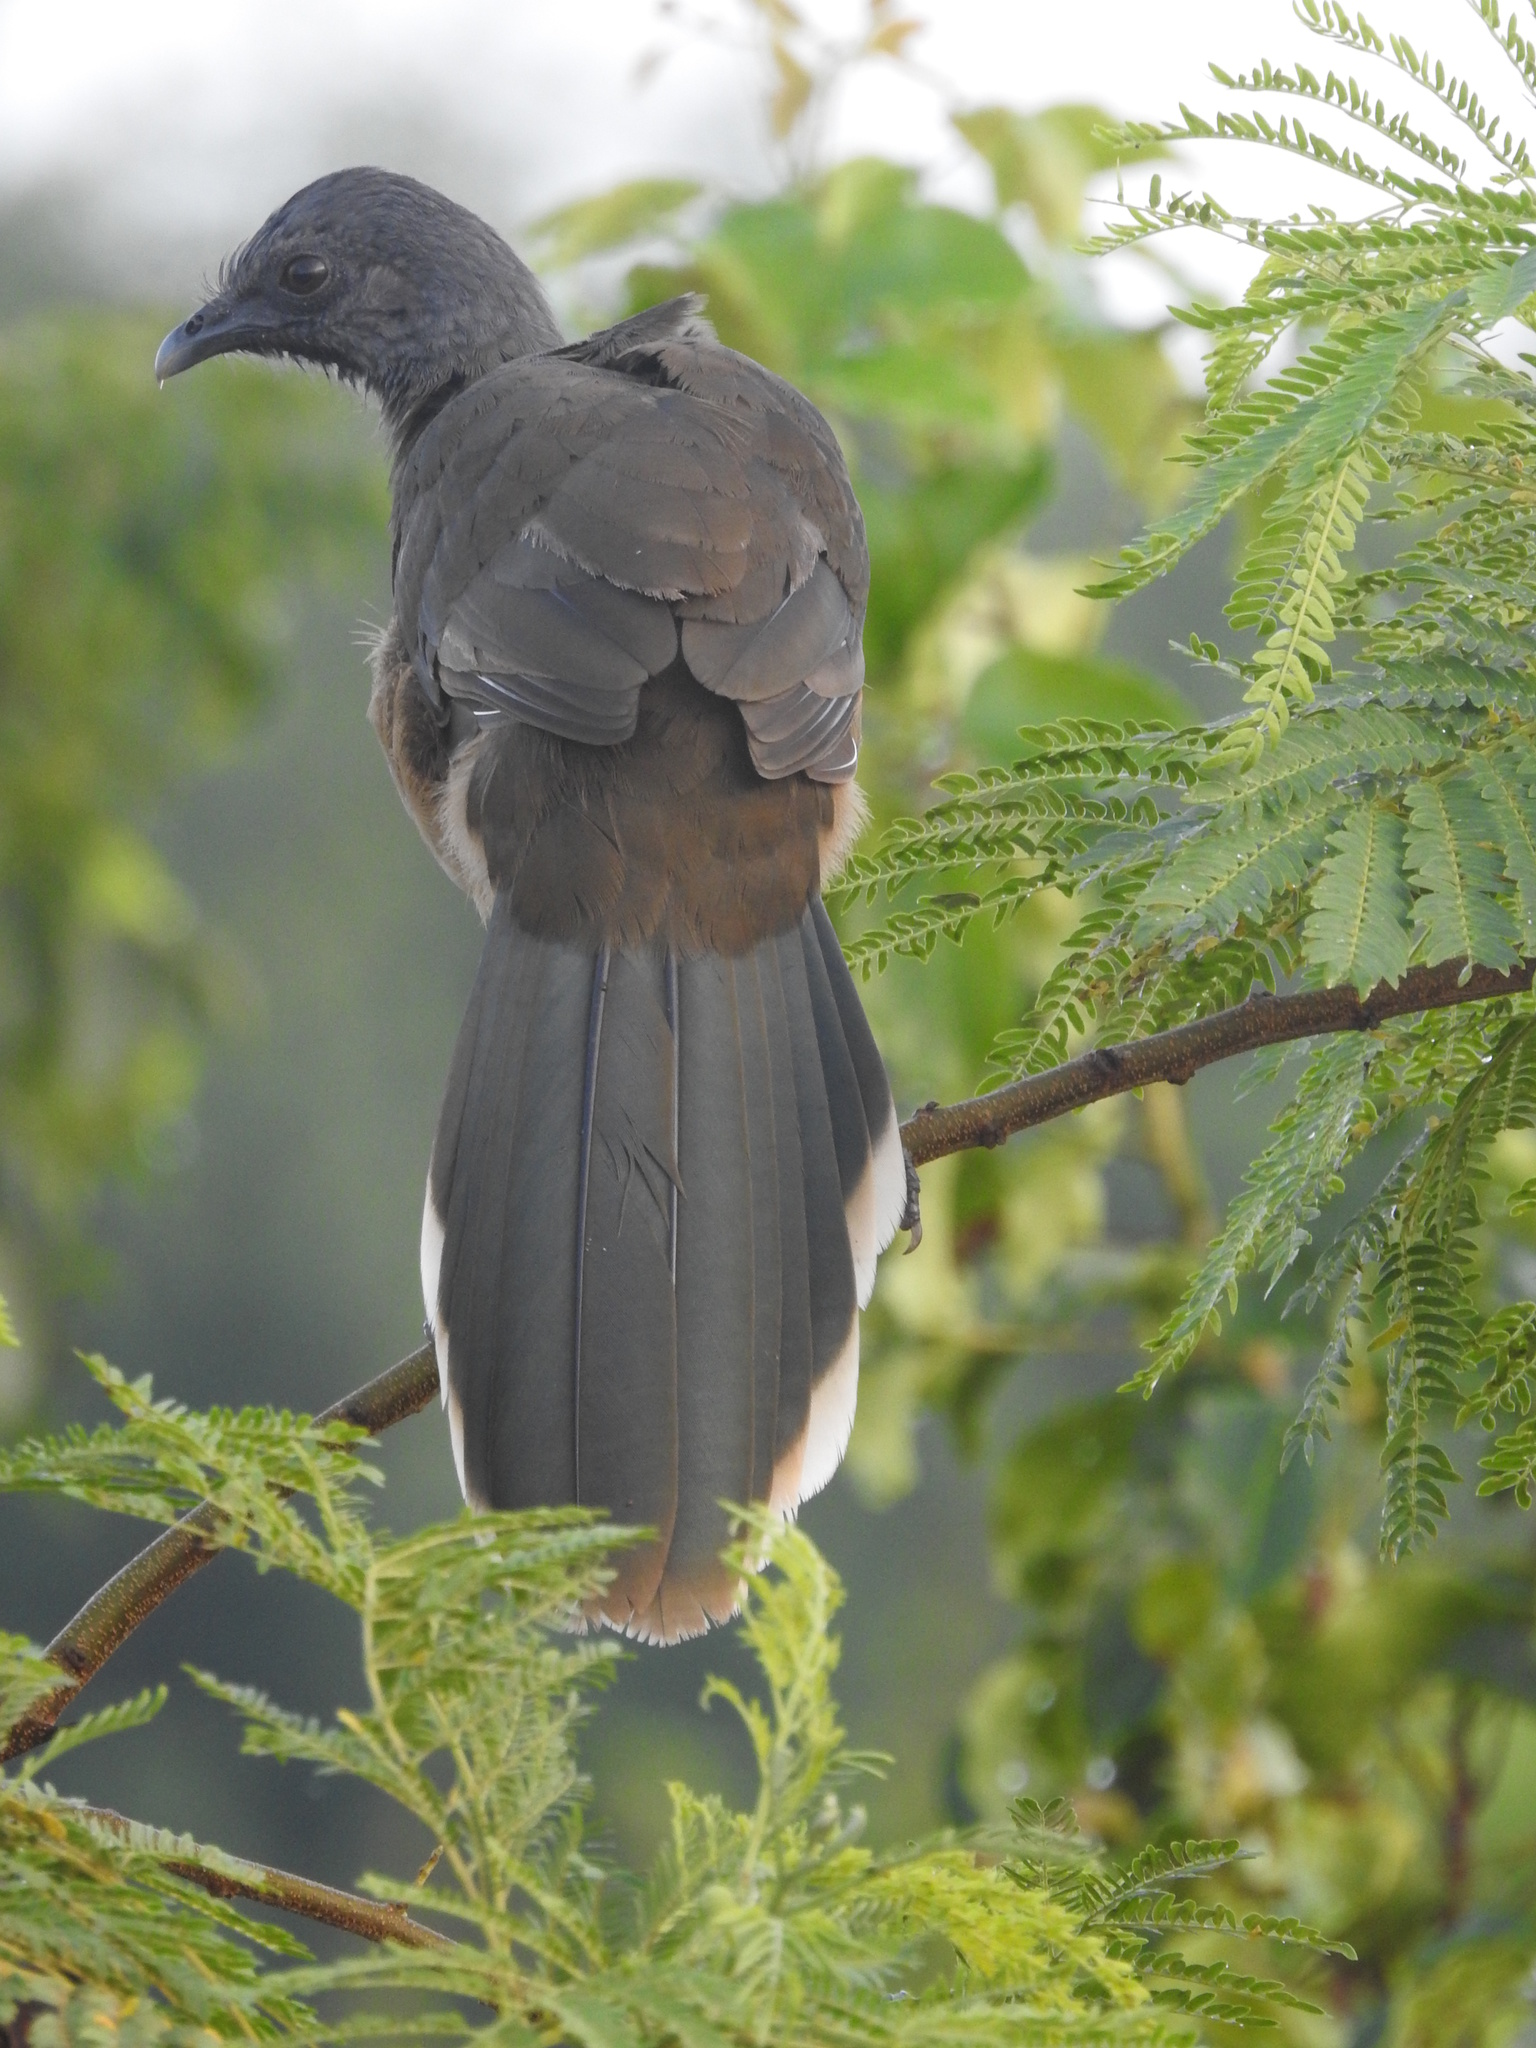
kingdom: Animalia
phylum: Chordata
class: Aves
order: Galliformes
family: Cracidae
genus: Ortalis
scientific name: Ortalis vetula
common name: Plain chachalaca
